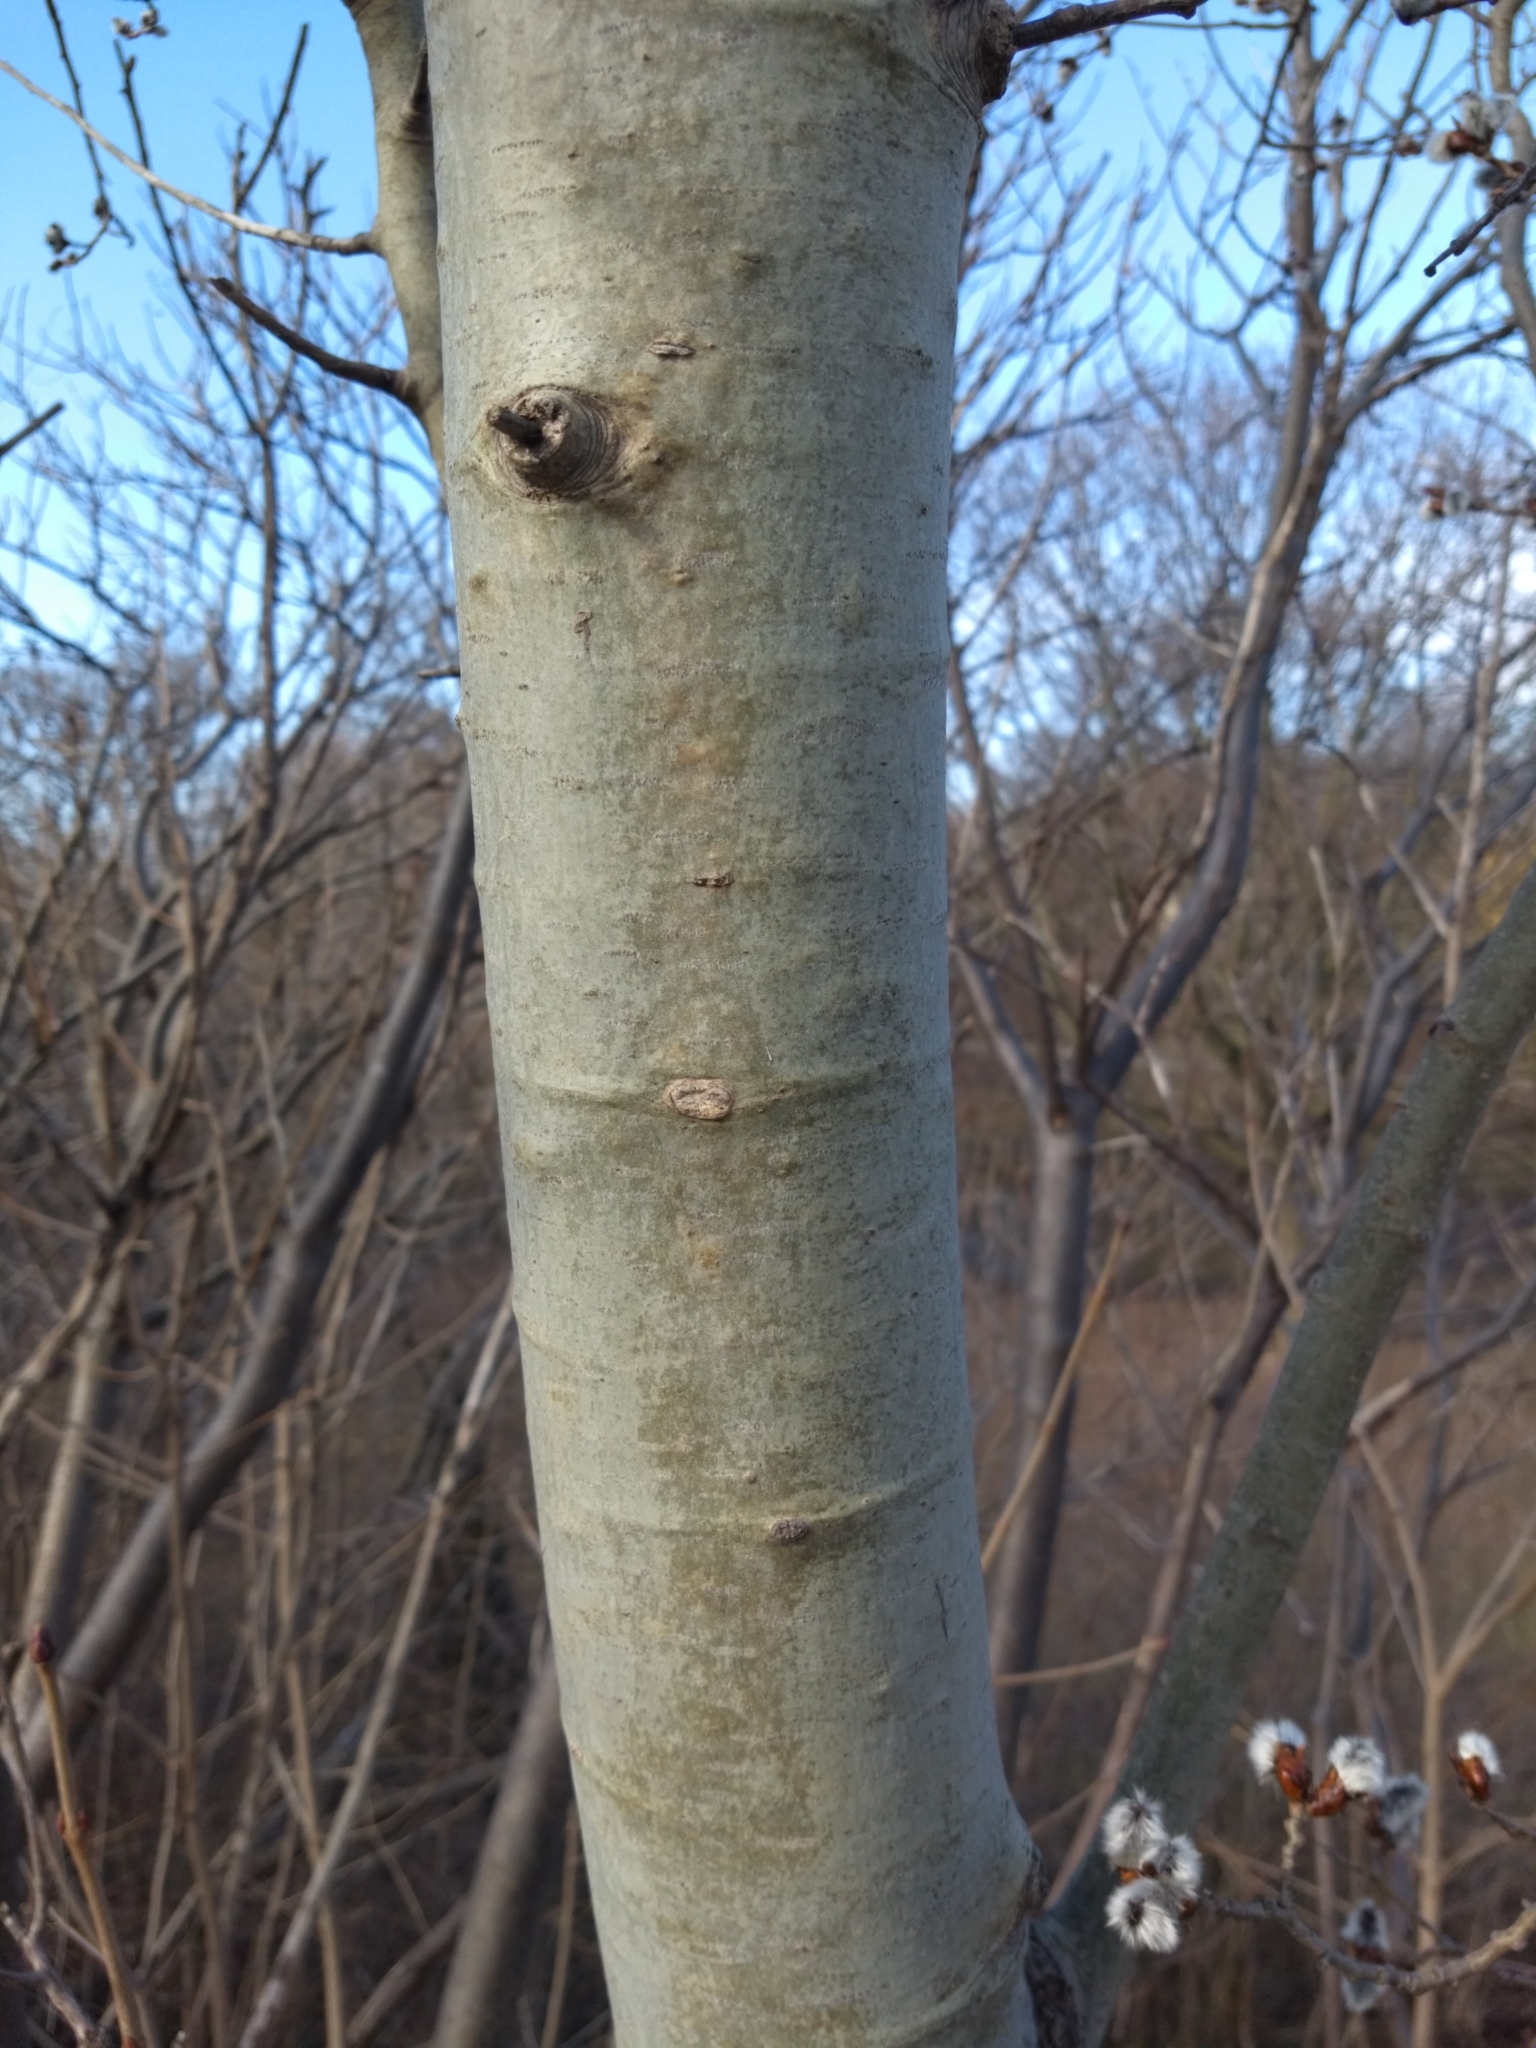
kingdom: Plantae
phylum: Tracheophyta
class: Magnoliopsida
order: Malpighiales
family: Salicaceae
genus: Populus
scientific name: Populus tremuloides
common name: Quaking aspen
